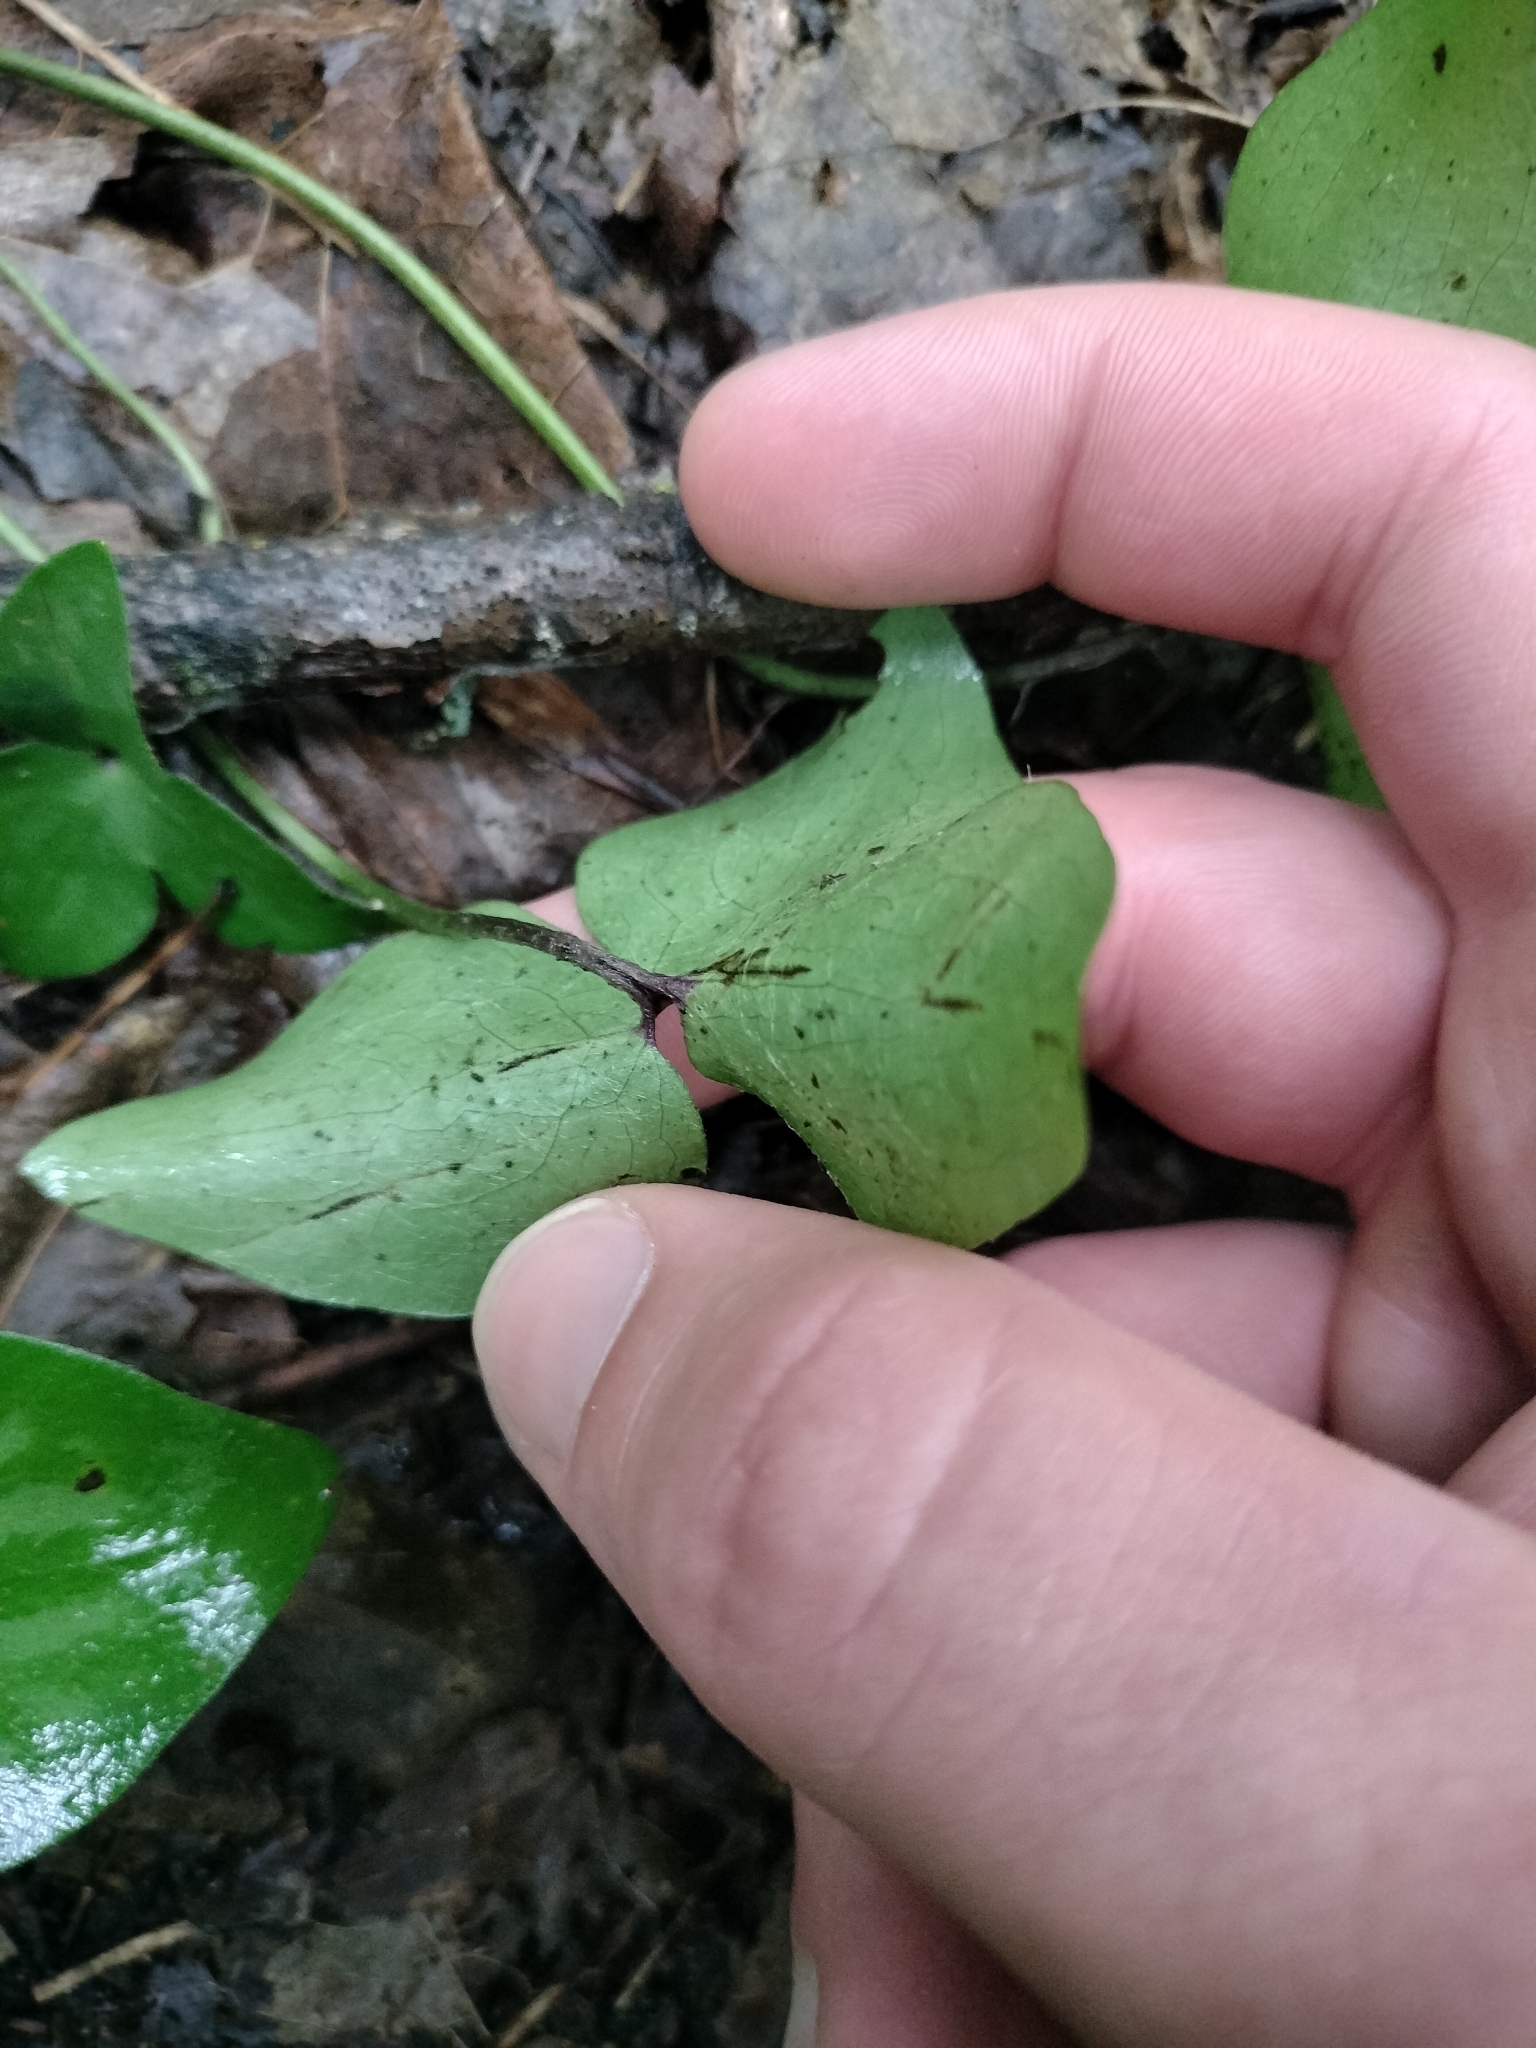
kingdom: Plantae
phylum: Tracheophyta
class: Magnoliopsida
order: Ranunculales
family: Ranunculaceae
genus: Hepatica
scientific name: Hepatica acutiloba
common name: Sharp-lobed hepatica
